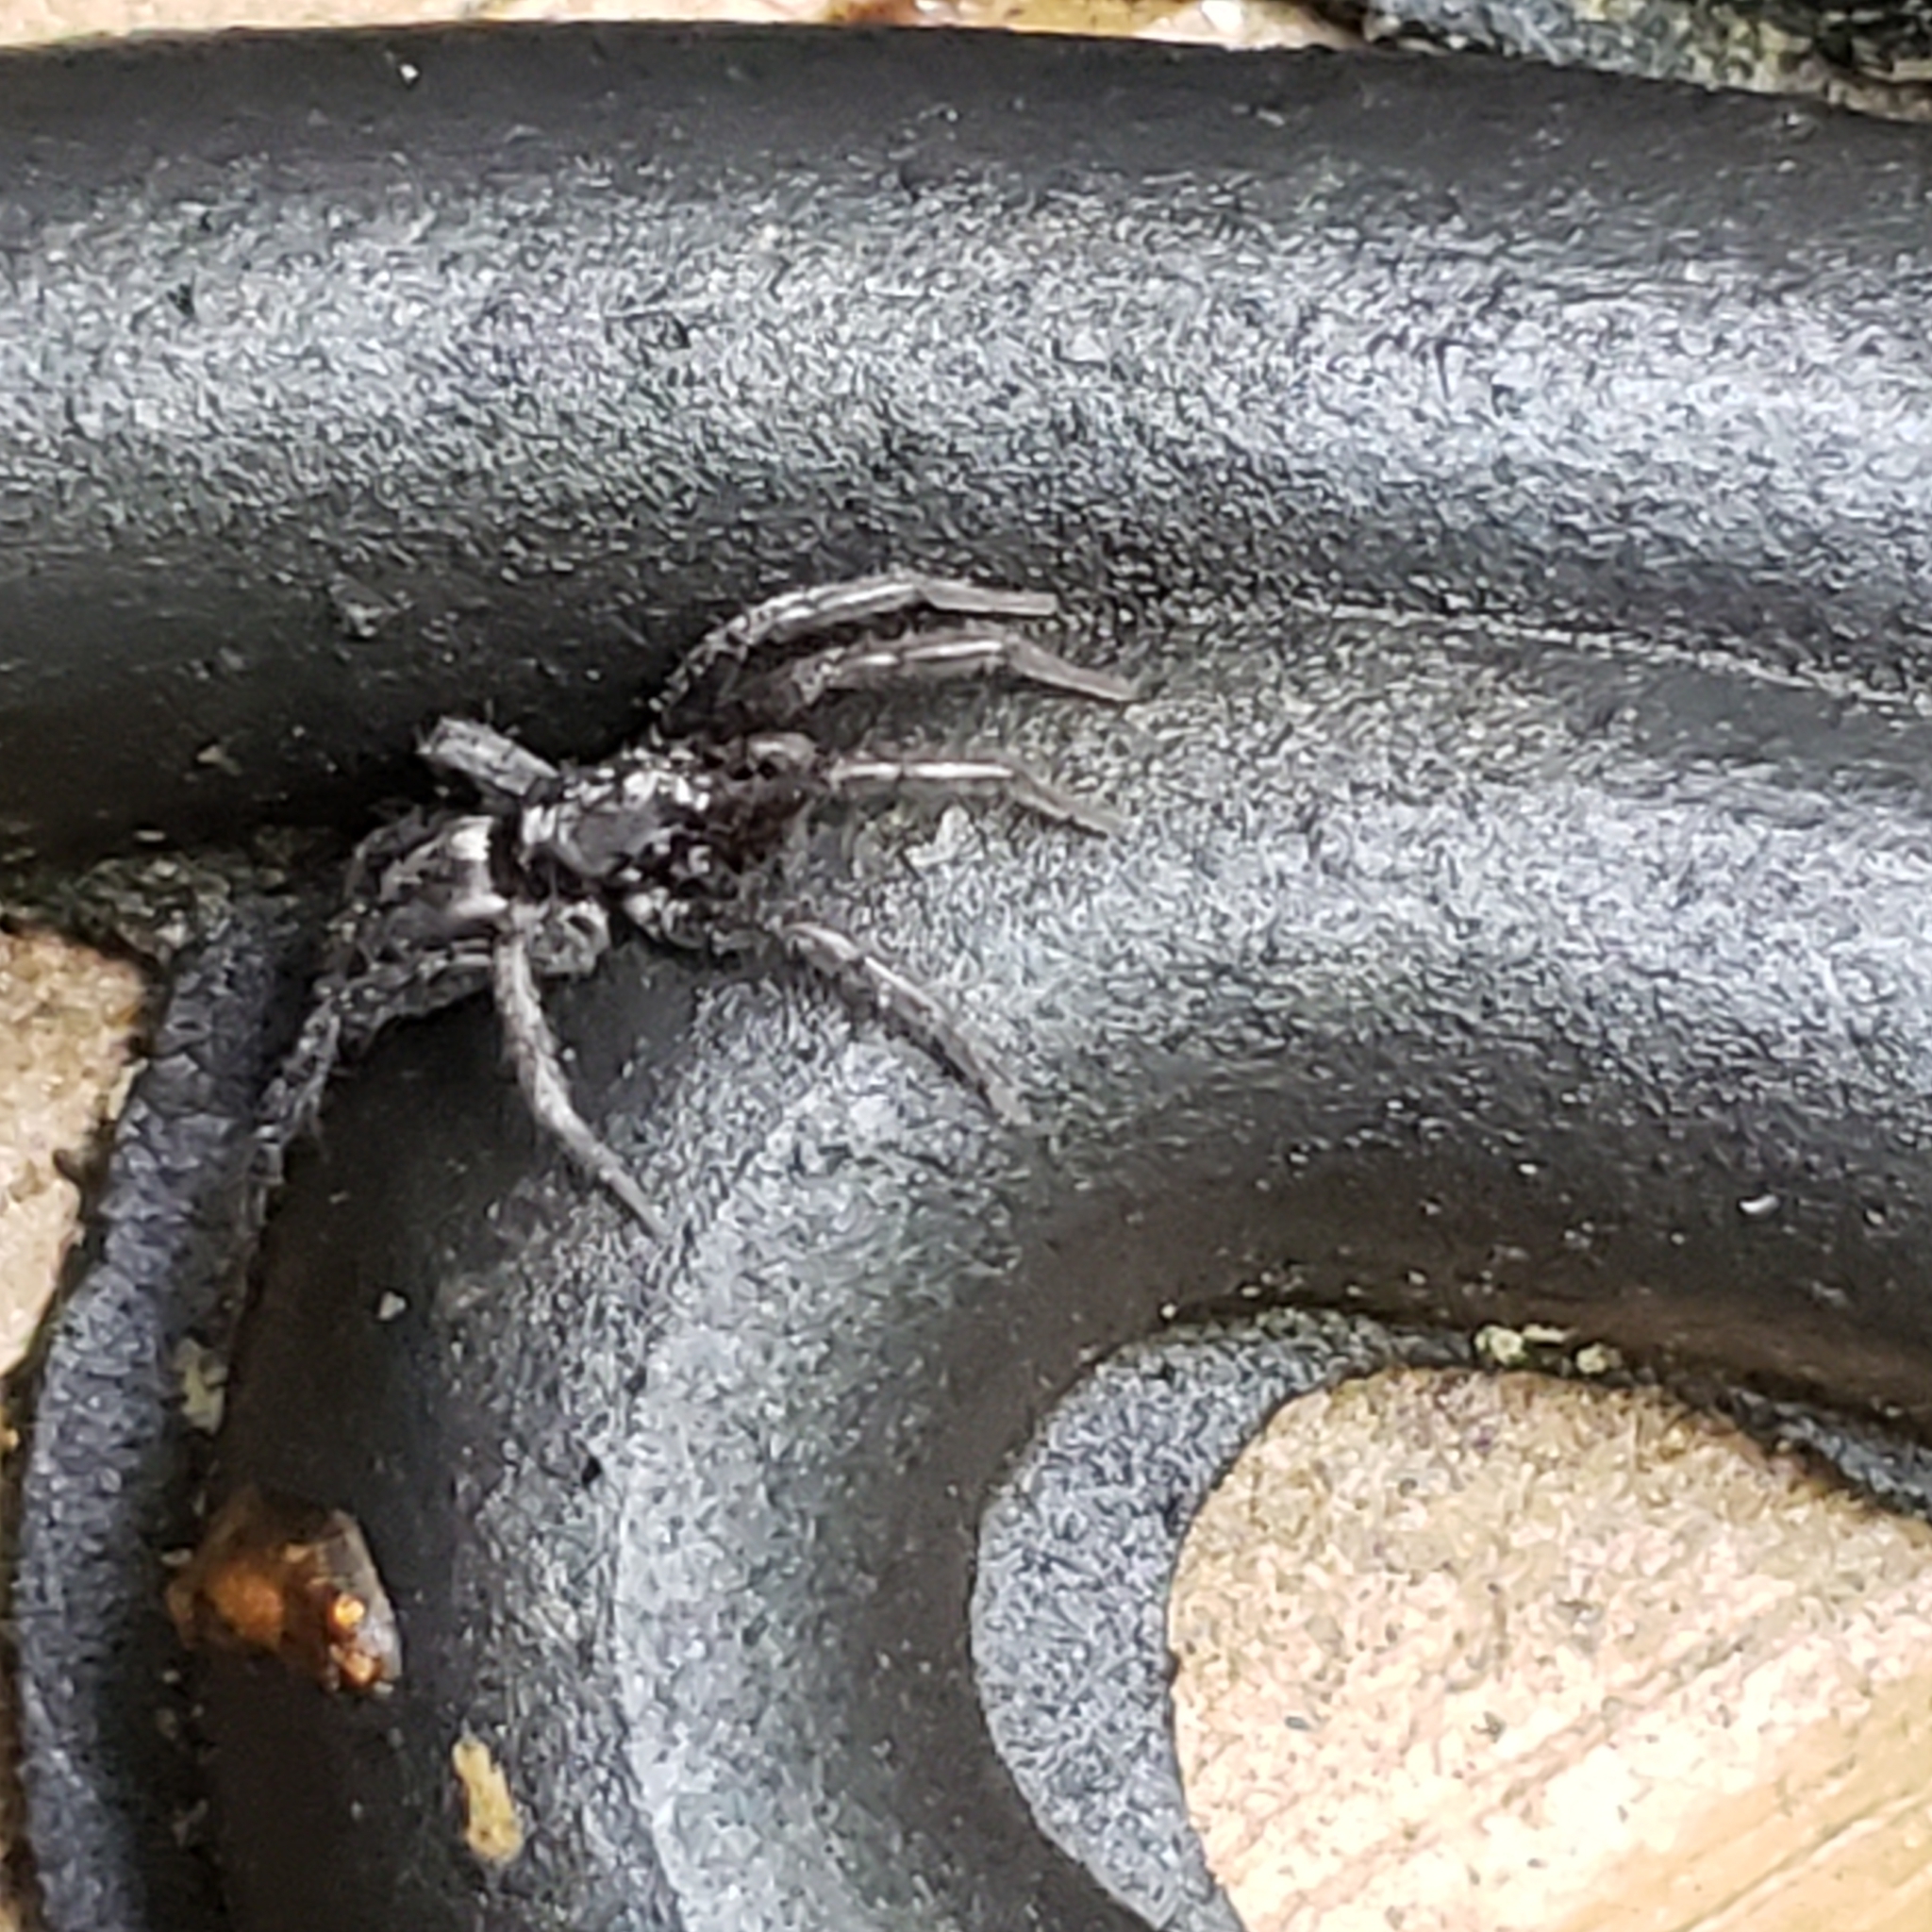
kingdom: Animalia
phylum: Arthropoda
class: Arachnida
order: Araneae
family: Gnaphosidae
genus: Herpyllus
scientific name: Herpyllus ecclesiasticus
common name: Eastern parson spider
